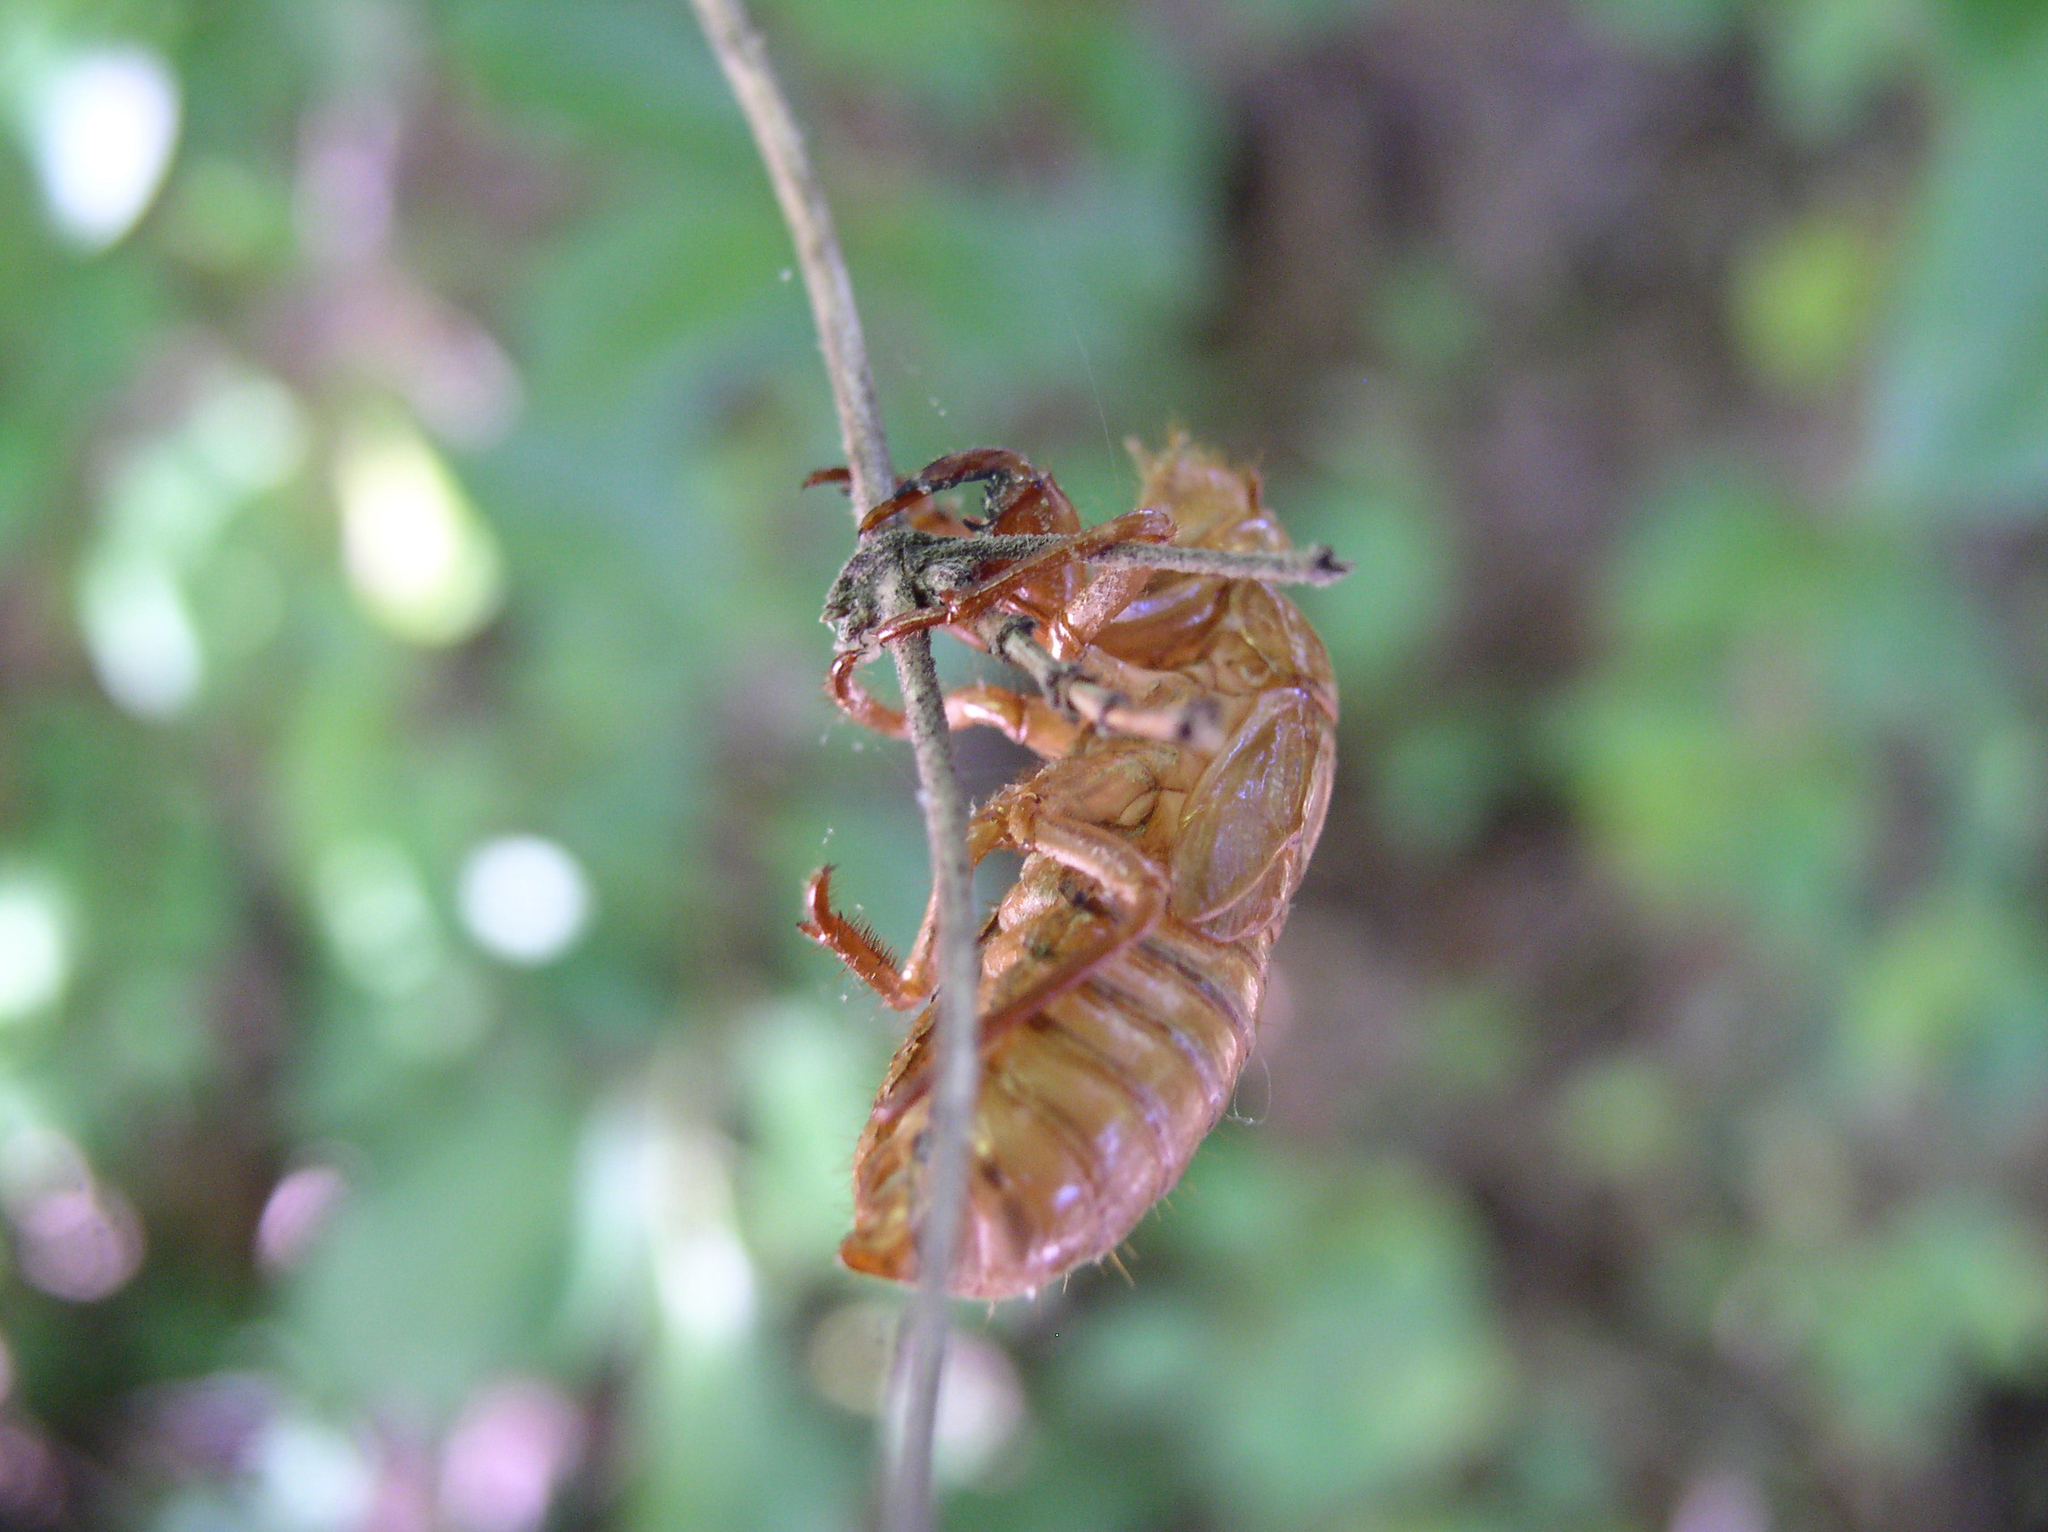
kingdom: Animalia
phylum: Arthropoda
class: Insecta
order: Hemiptera
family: Cicadidae
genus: Magicicada
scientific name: Magicicada
